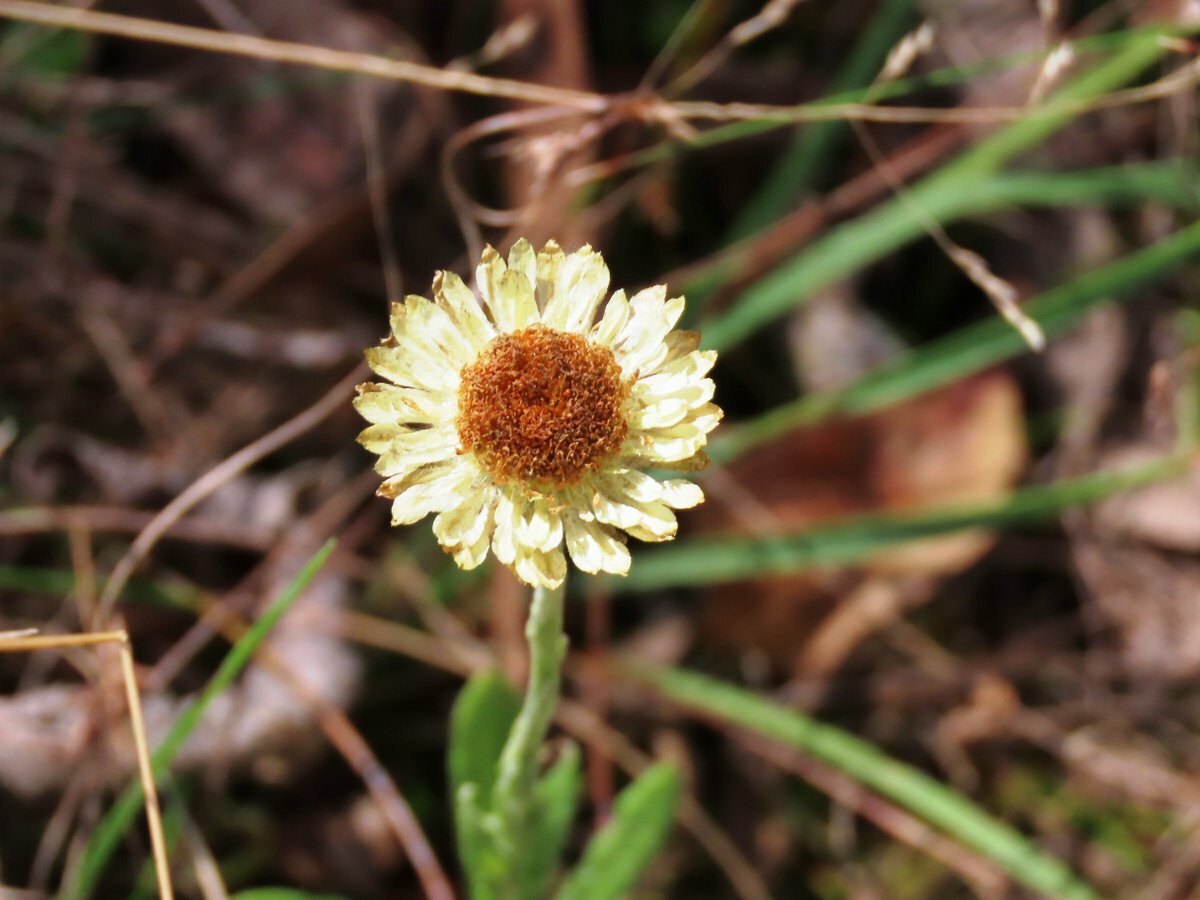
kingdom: Plantae
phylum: Tracheophyta
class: Magnoliopsida
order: Asterales
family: Asteraceae
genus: Coronidium
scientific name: Coronidium scorpioides
